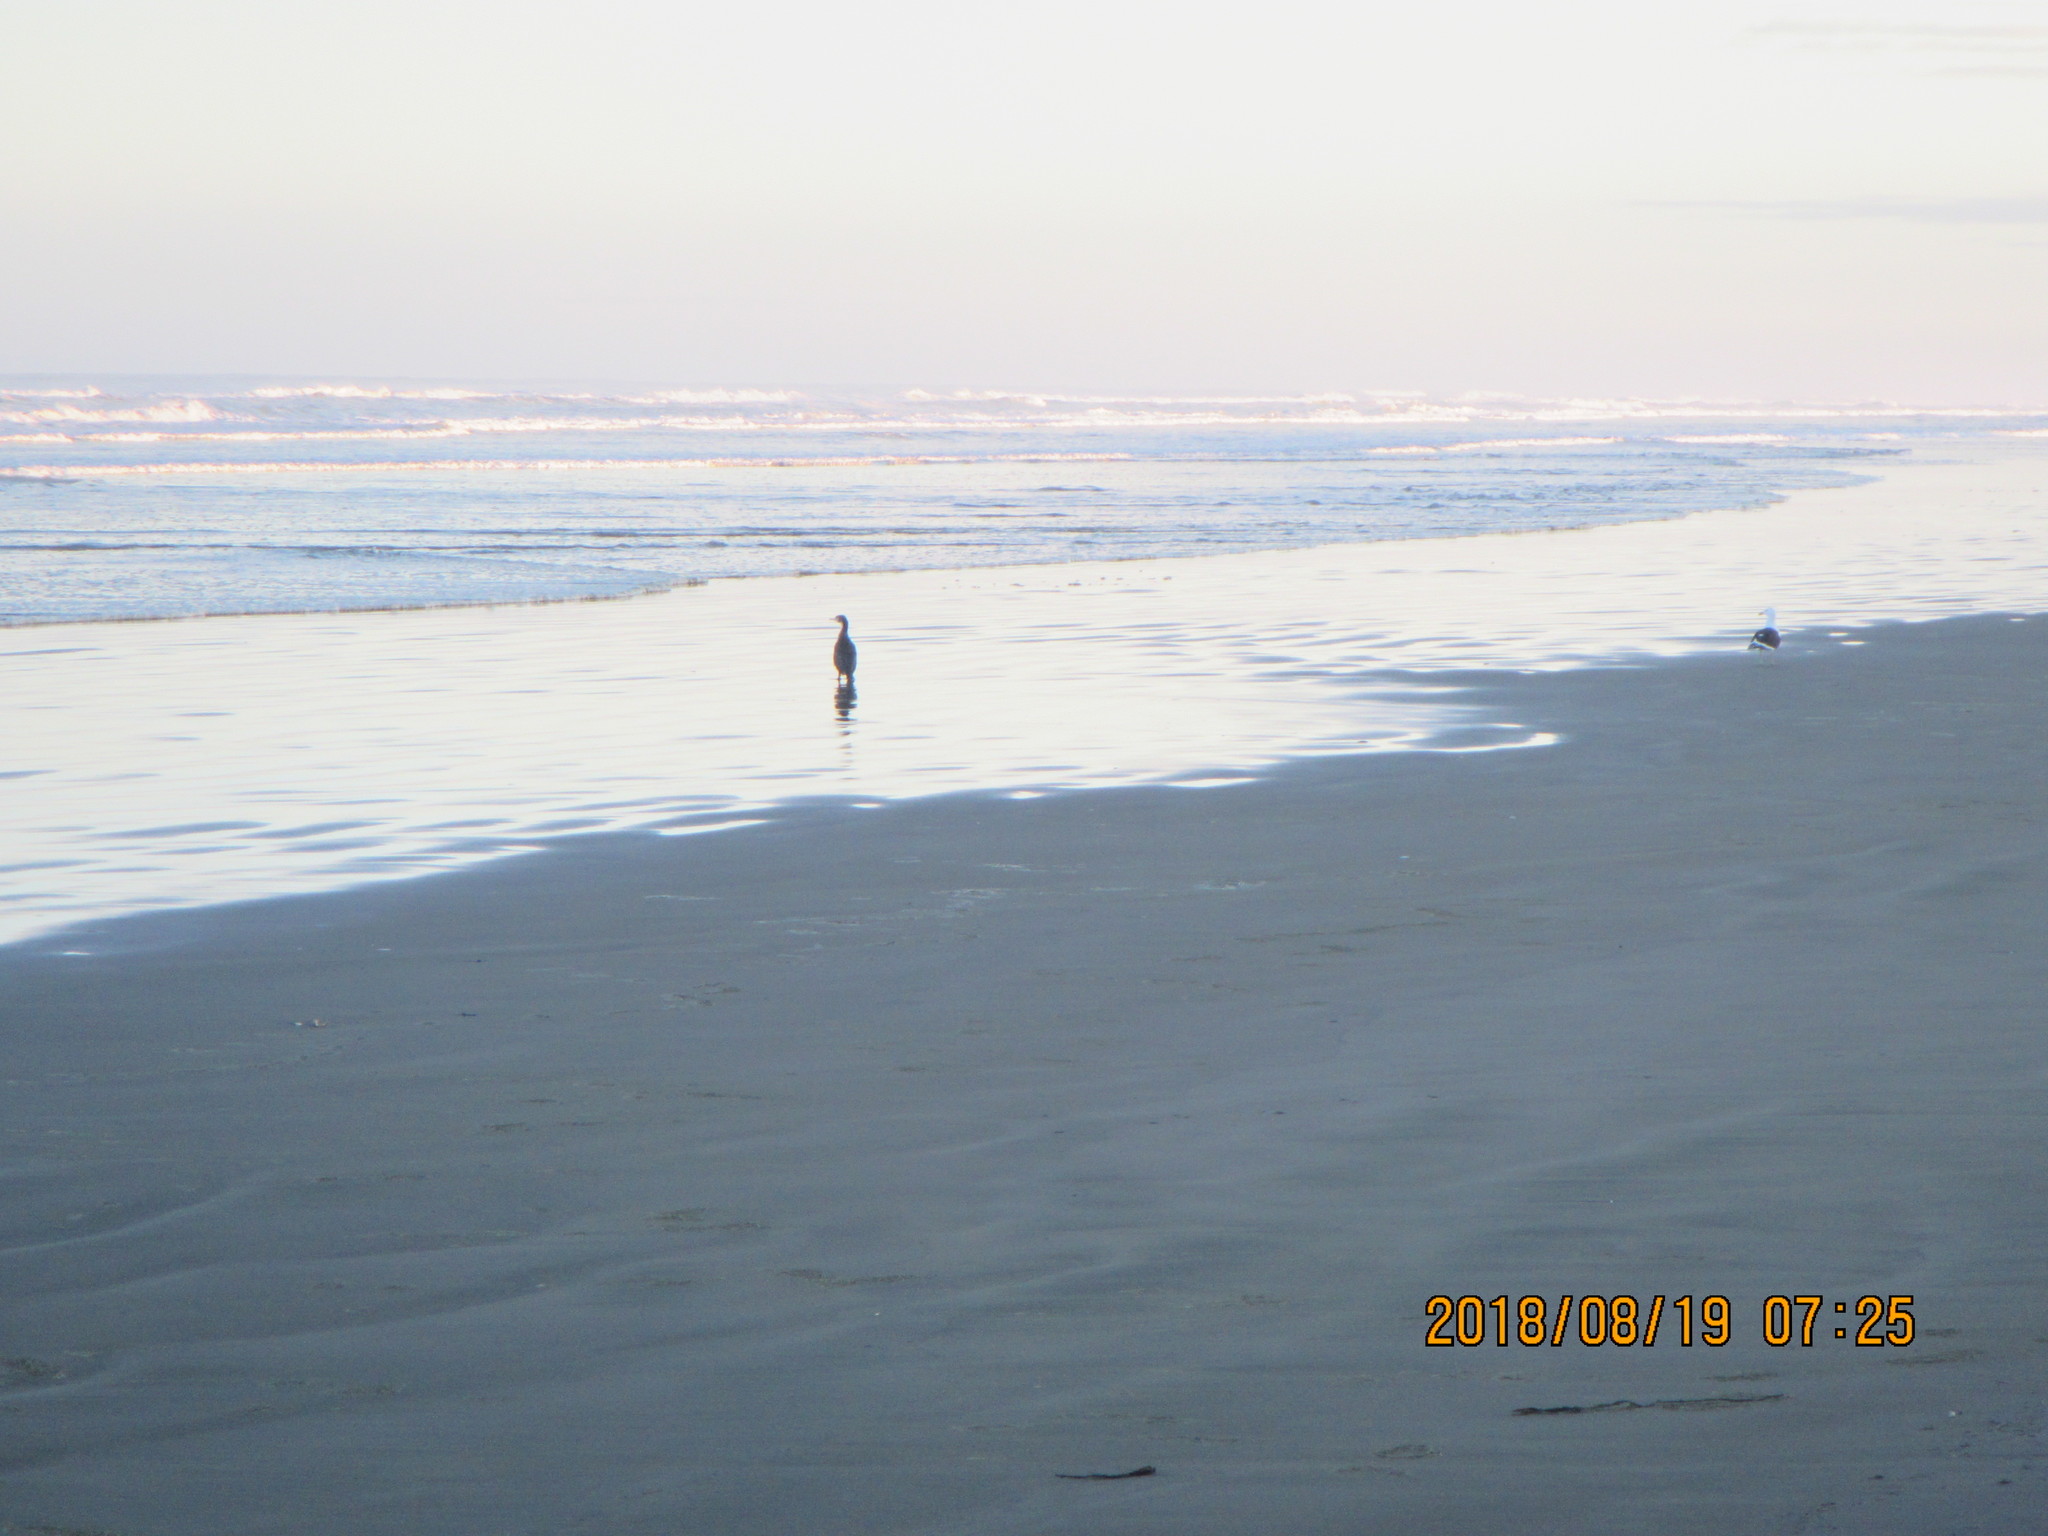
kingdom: Animalia
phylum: Chordata
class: Aves
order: Suliformes
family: Phalacrocoracidae
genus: Phalacrocorax
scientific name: Phalacrocorax varius
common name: Pied cormorant
